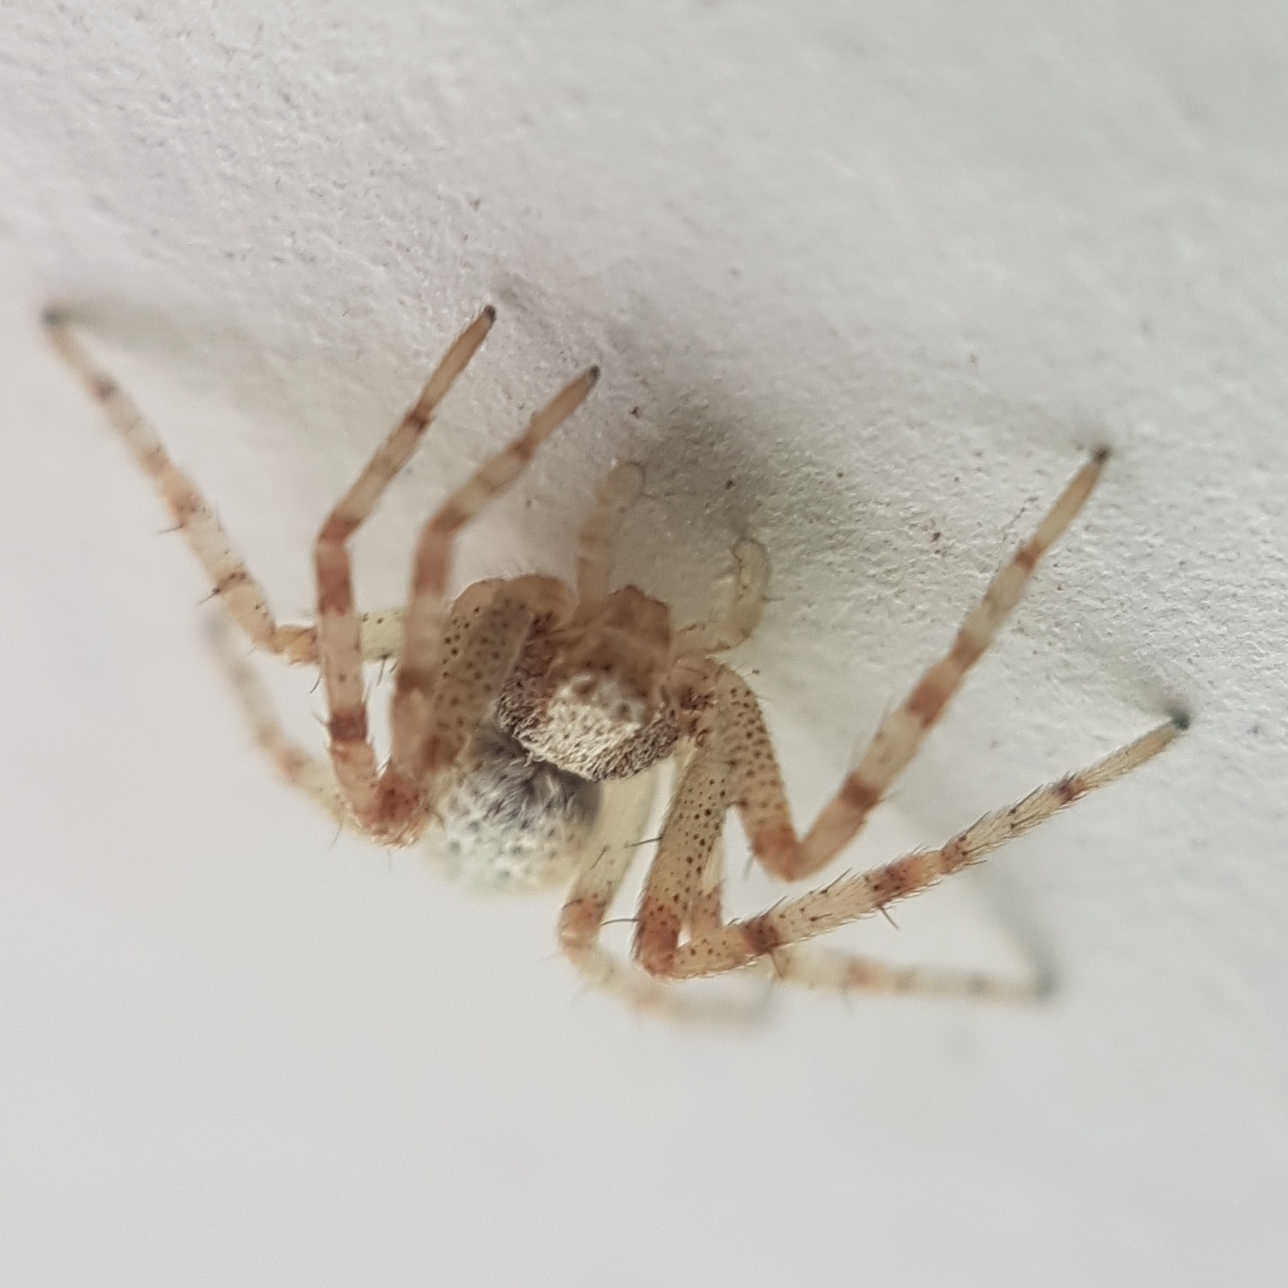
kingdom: Animalia
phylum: Arthropoda
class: Arachnida
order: Araneae
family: Philodromidae
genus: Philodromus
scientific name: Philodromus
